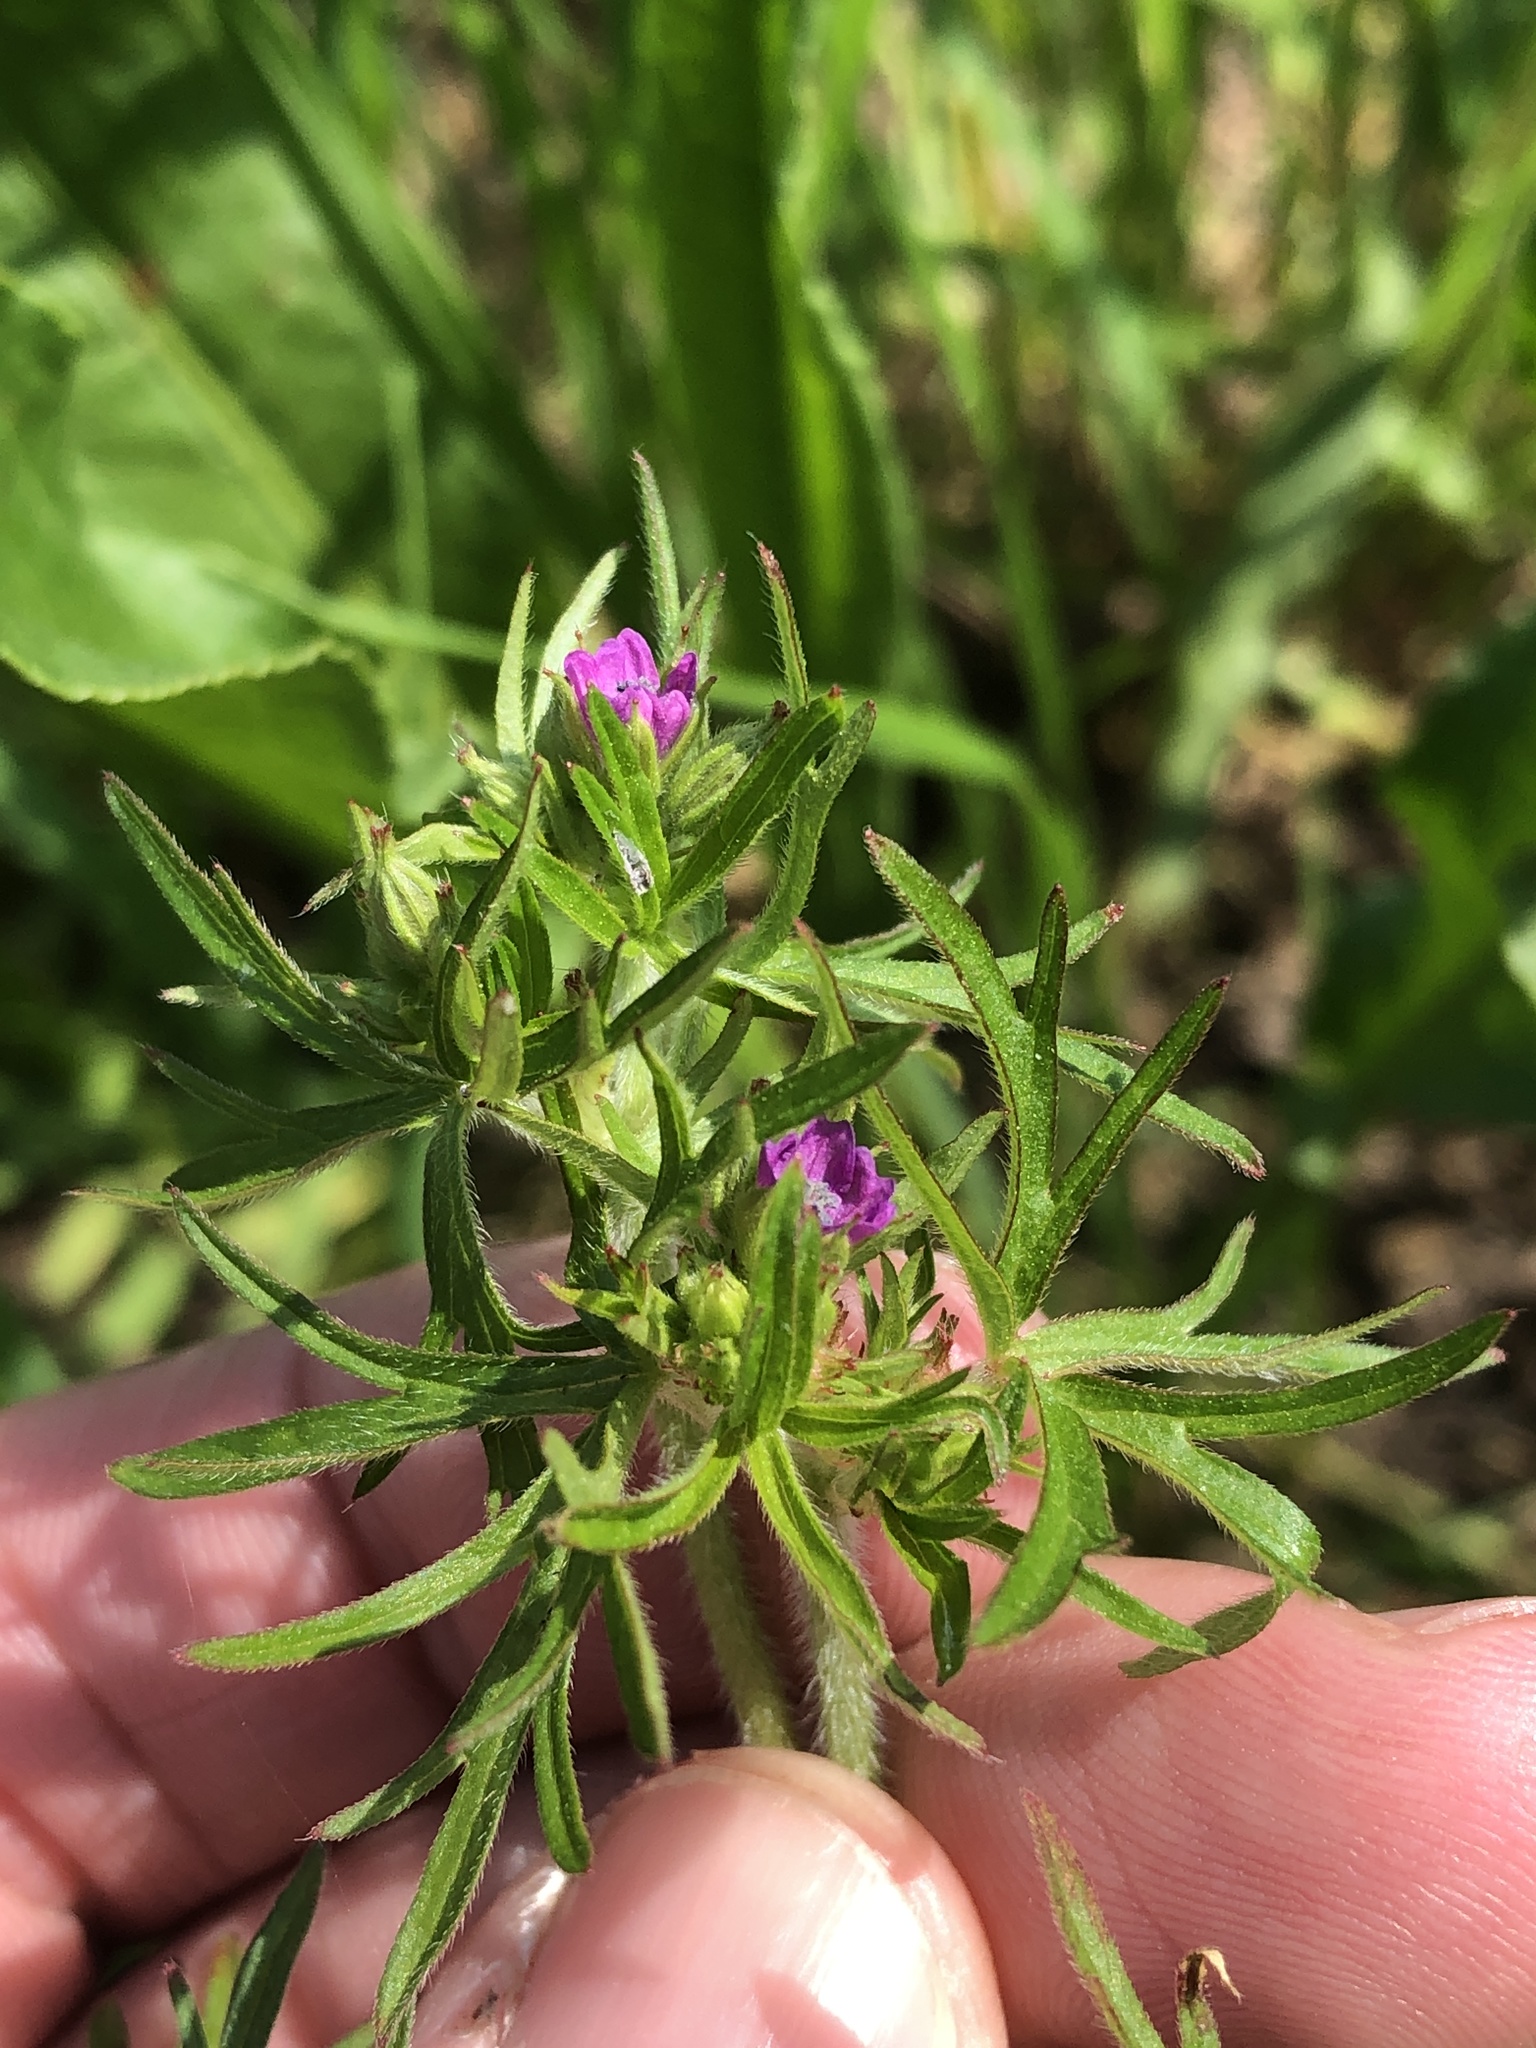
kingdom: Plantae
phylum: Tracheophyta
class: Magnoliopsida
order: Geraniales
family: Geraniaceae
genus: Geranium
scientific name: Geranium dissectum
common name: Cut-leaved crane's-bill
